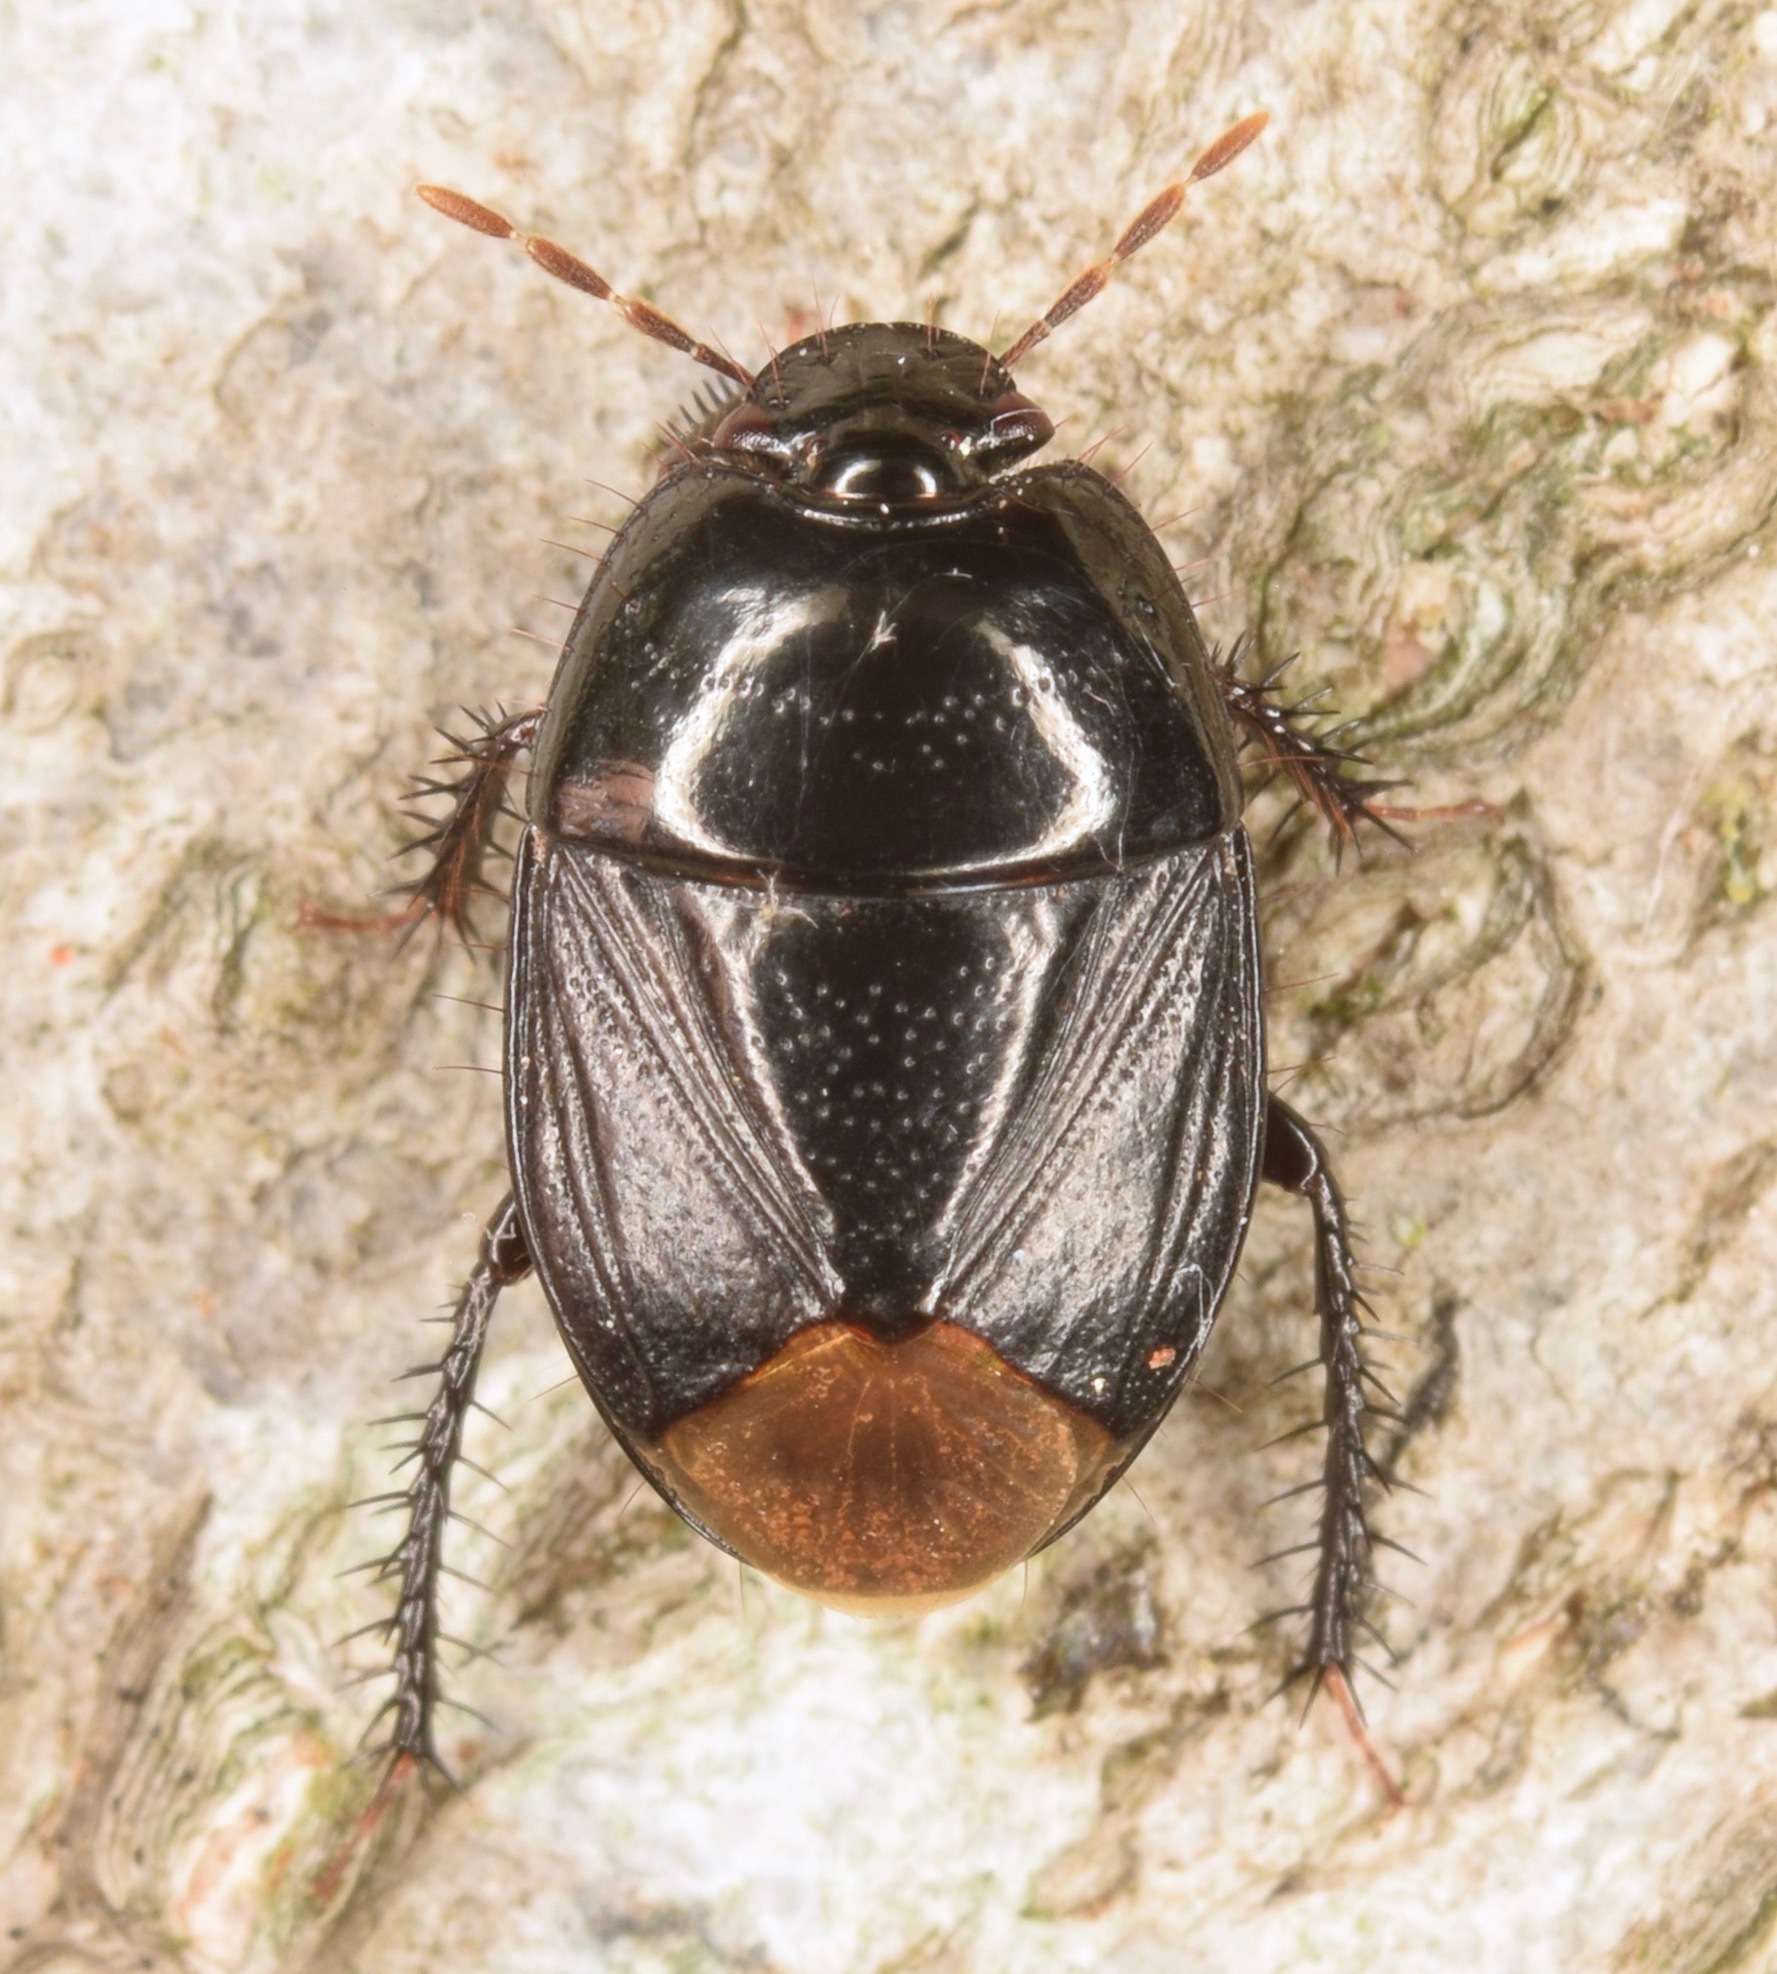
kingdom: Animalia
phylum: Arthropoda
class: Insecta
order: Hemiptera
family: Cydnidae
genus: Pangaeus
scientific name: Pangaeus bilineatus
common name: Burrower bug
